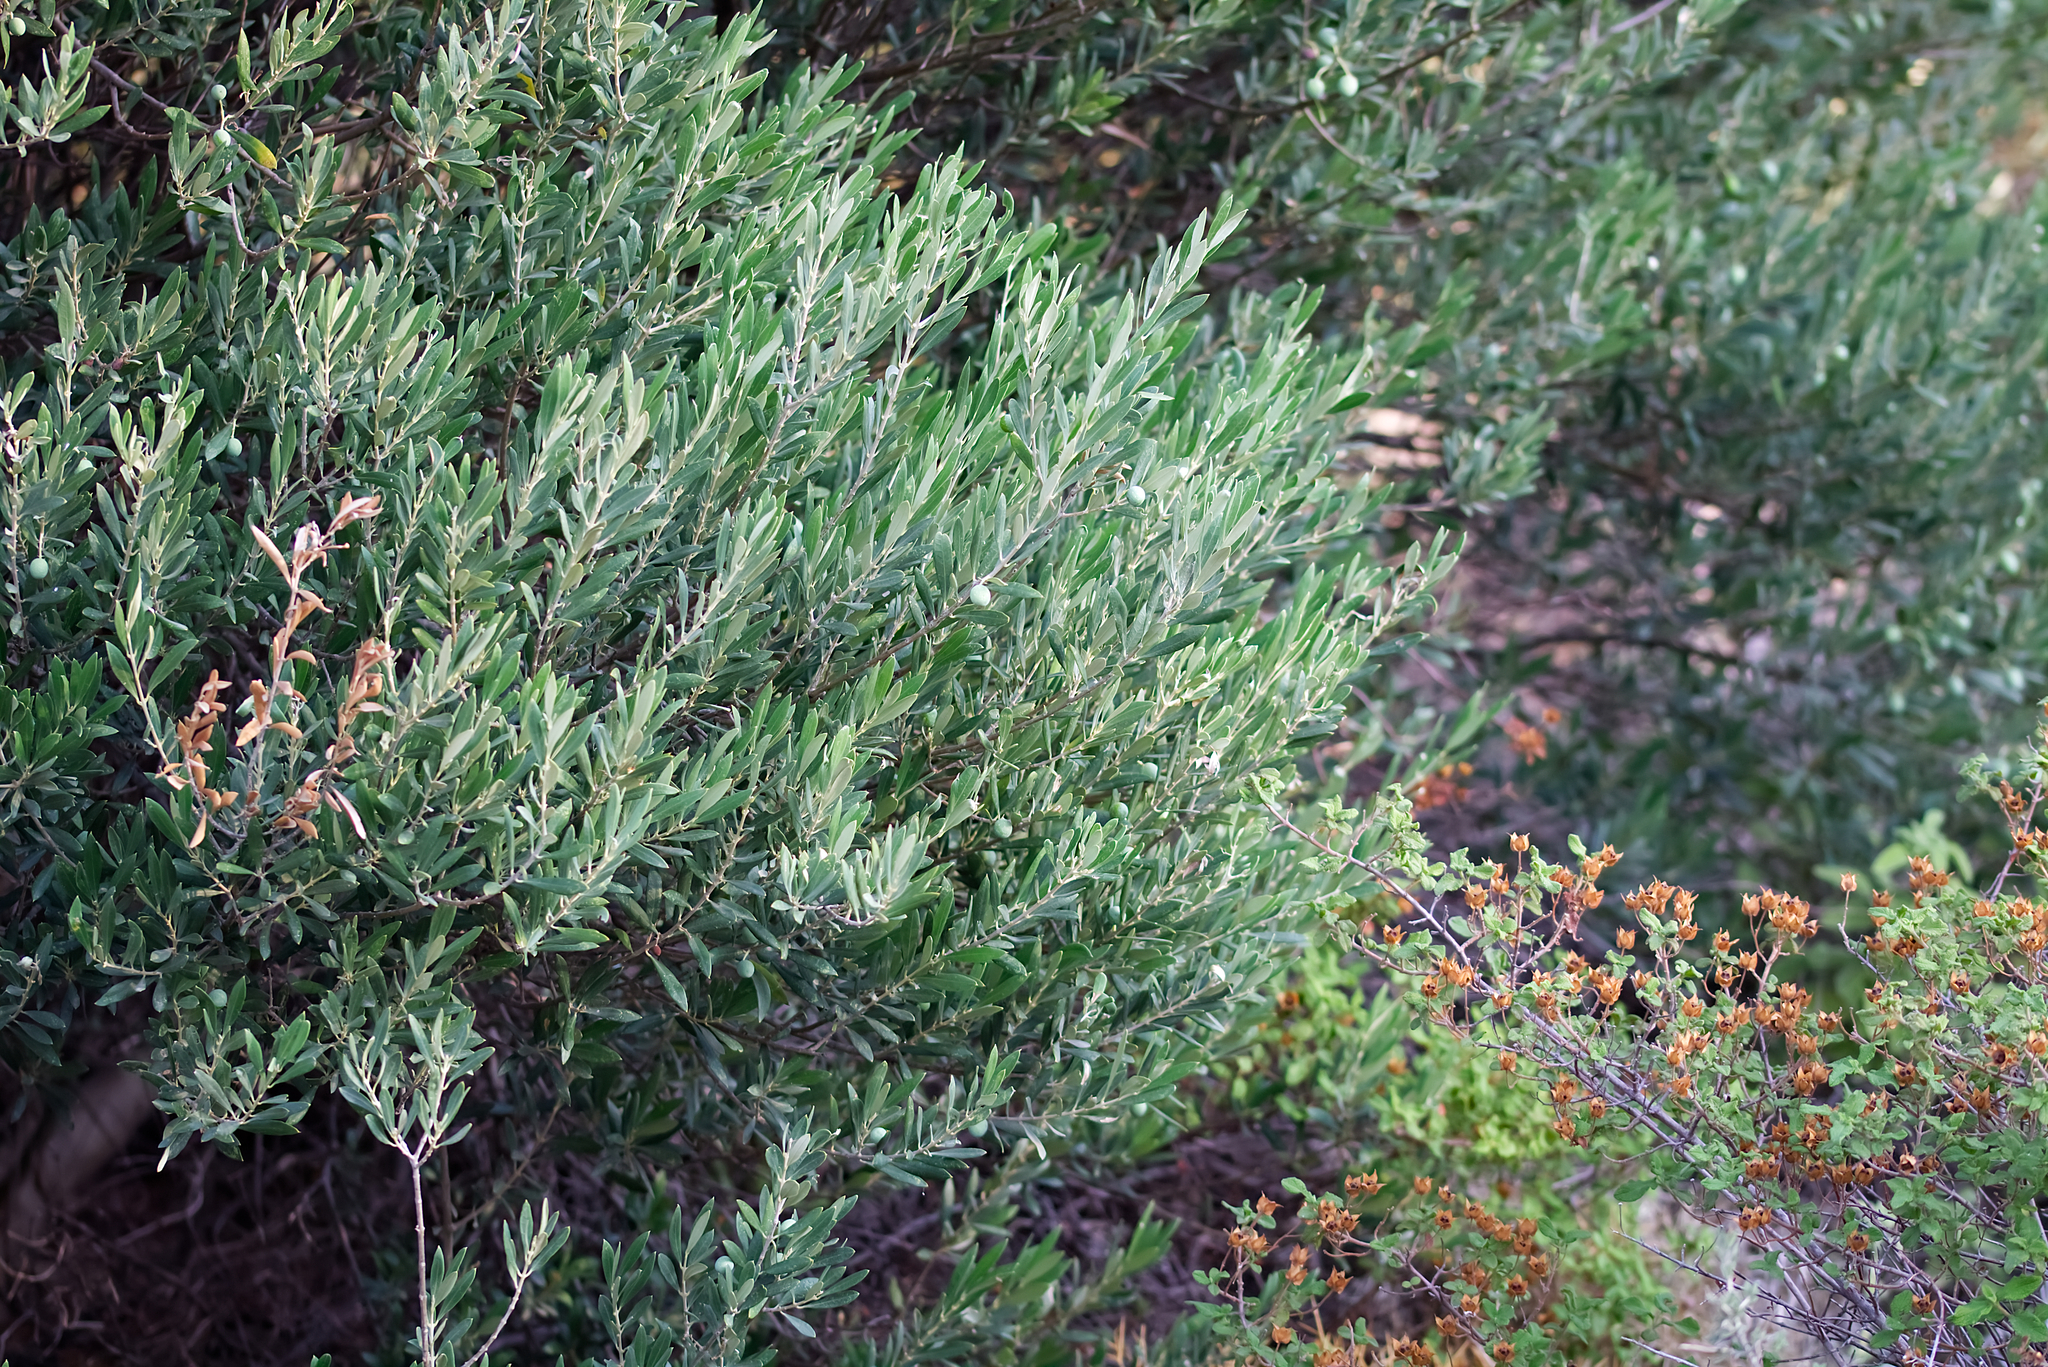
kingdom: Plantae
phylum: Tracheophyta
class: Magnoliopsida
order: Lamiales
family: Oleaceae
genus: Olea
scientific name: Olea europaea
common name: Olive
